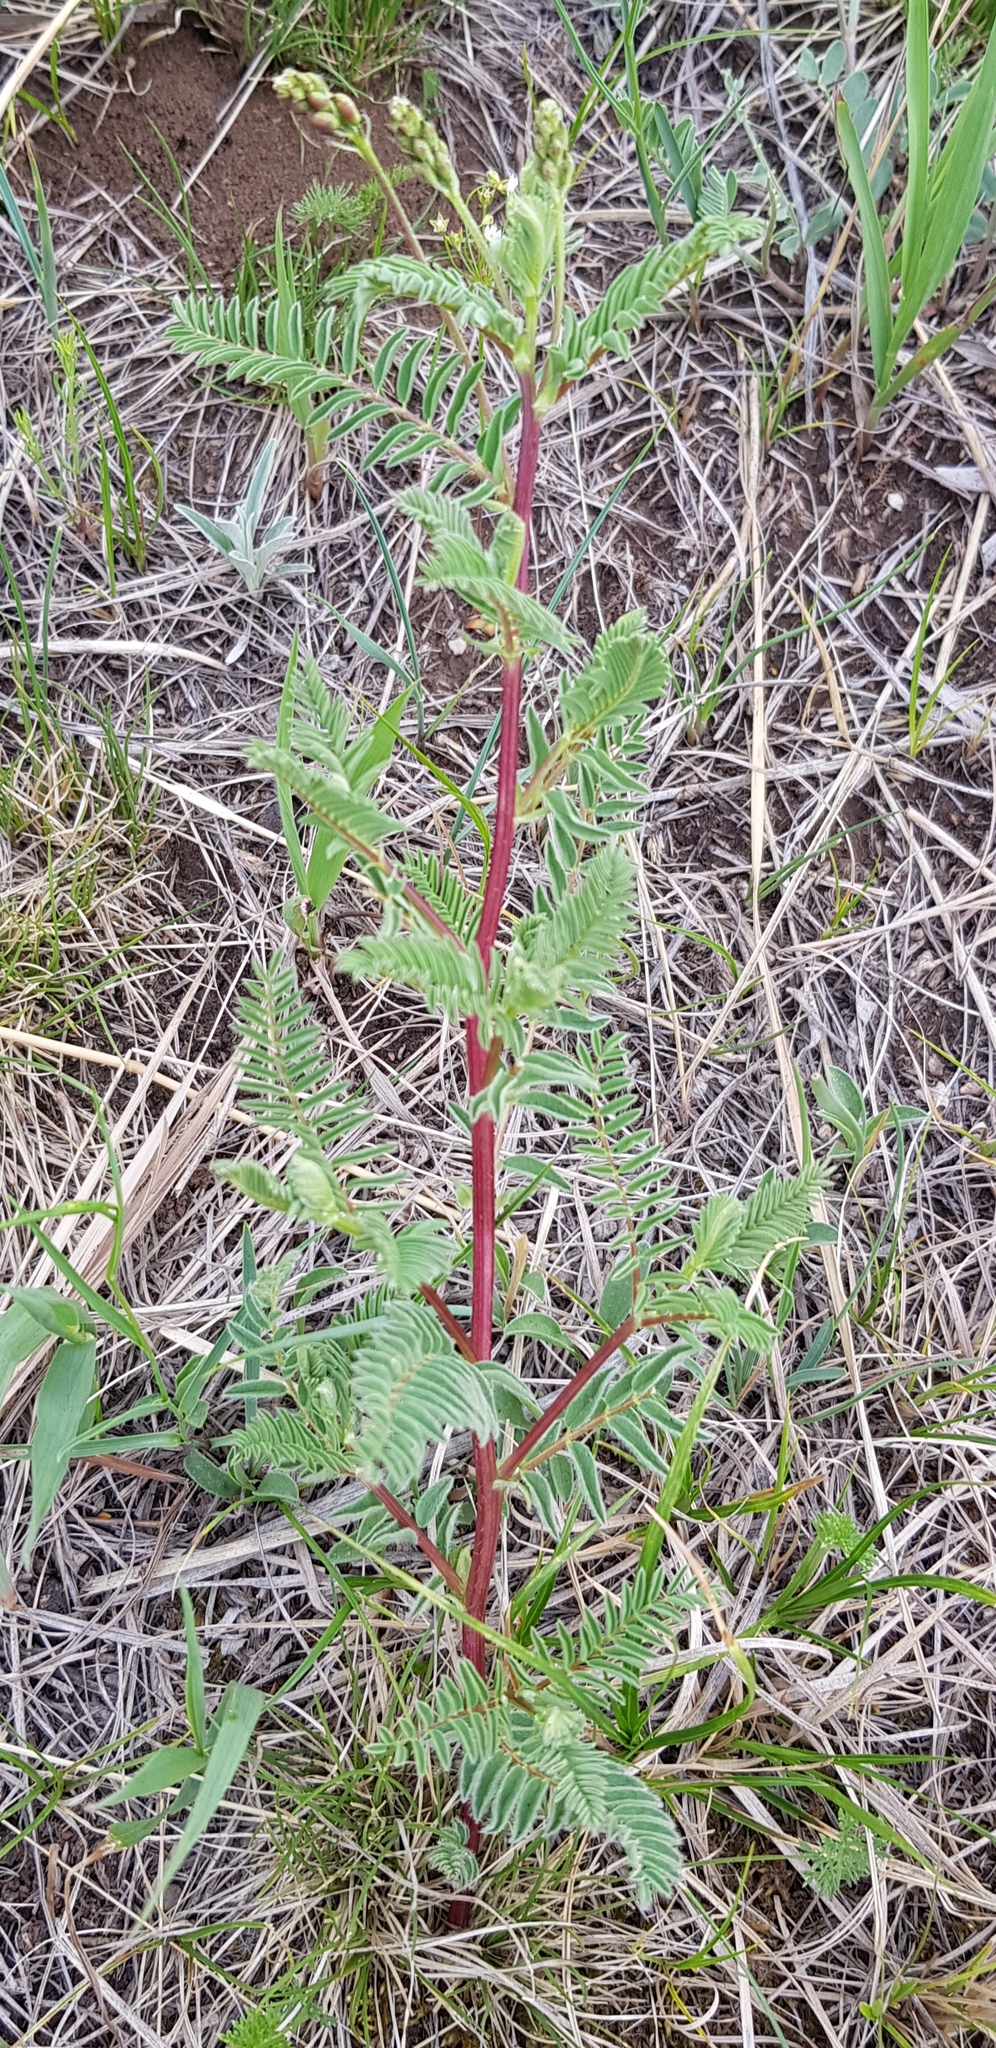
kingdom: Plantae
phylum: Tracheophyta
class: Magnoliopsida
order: Fabales
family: Fabaceae
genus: Astragalus
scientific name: Astragalus mongholicus
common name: Membranous milk-vetch
